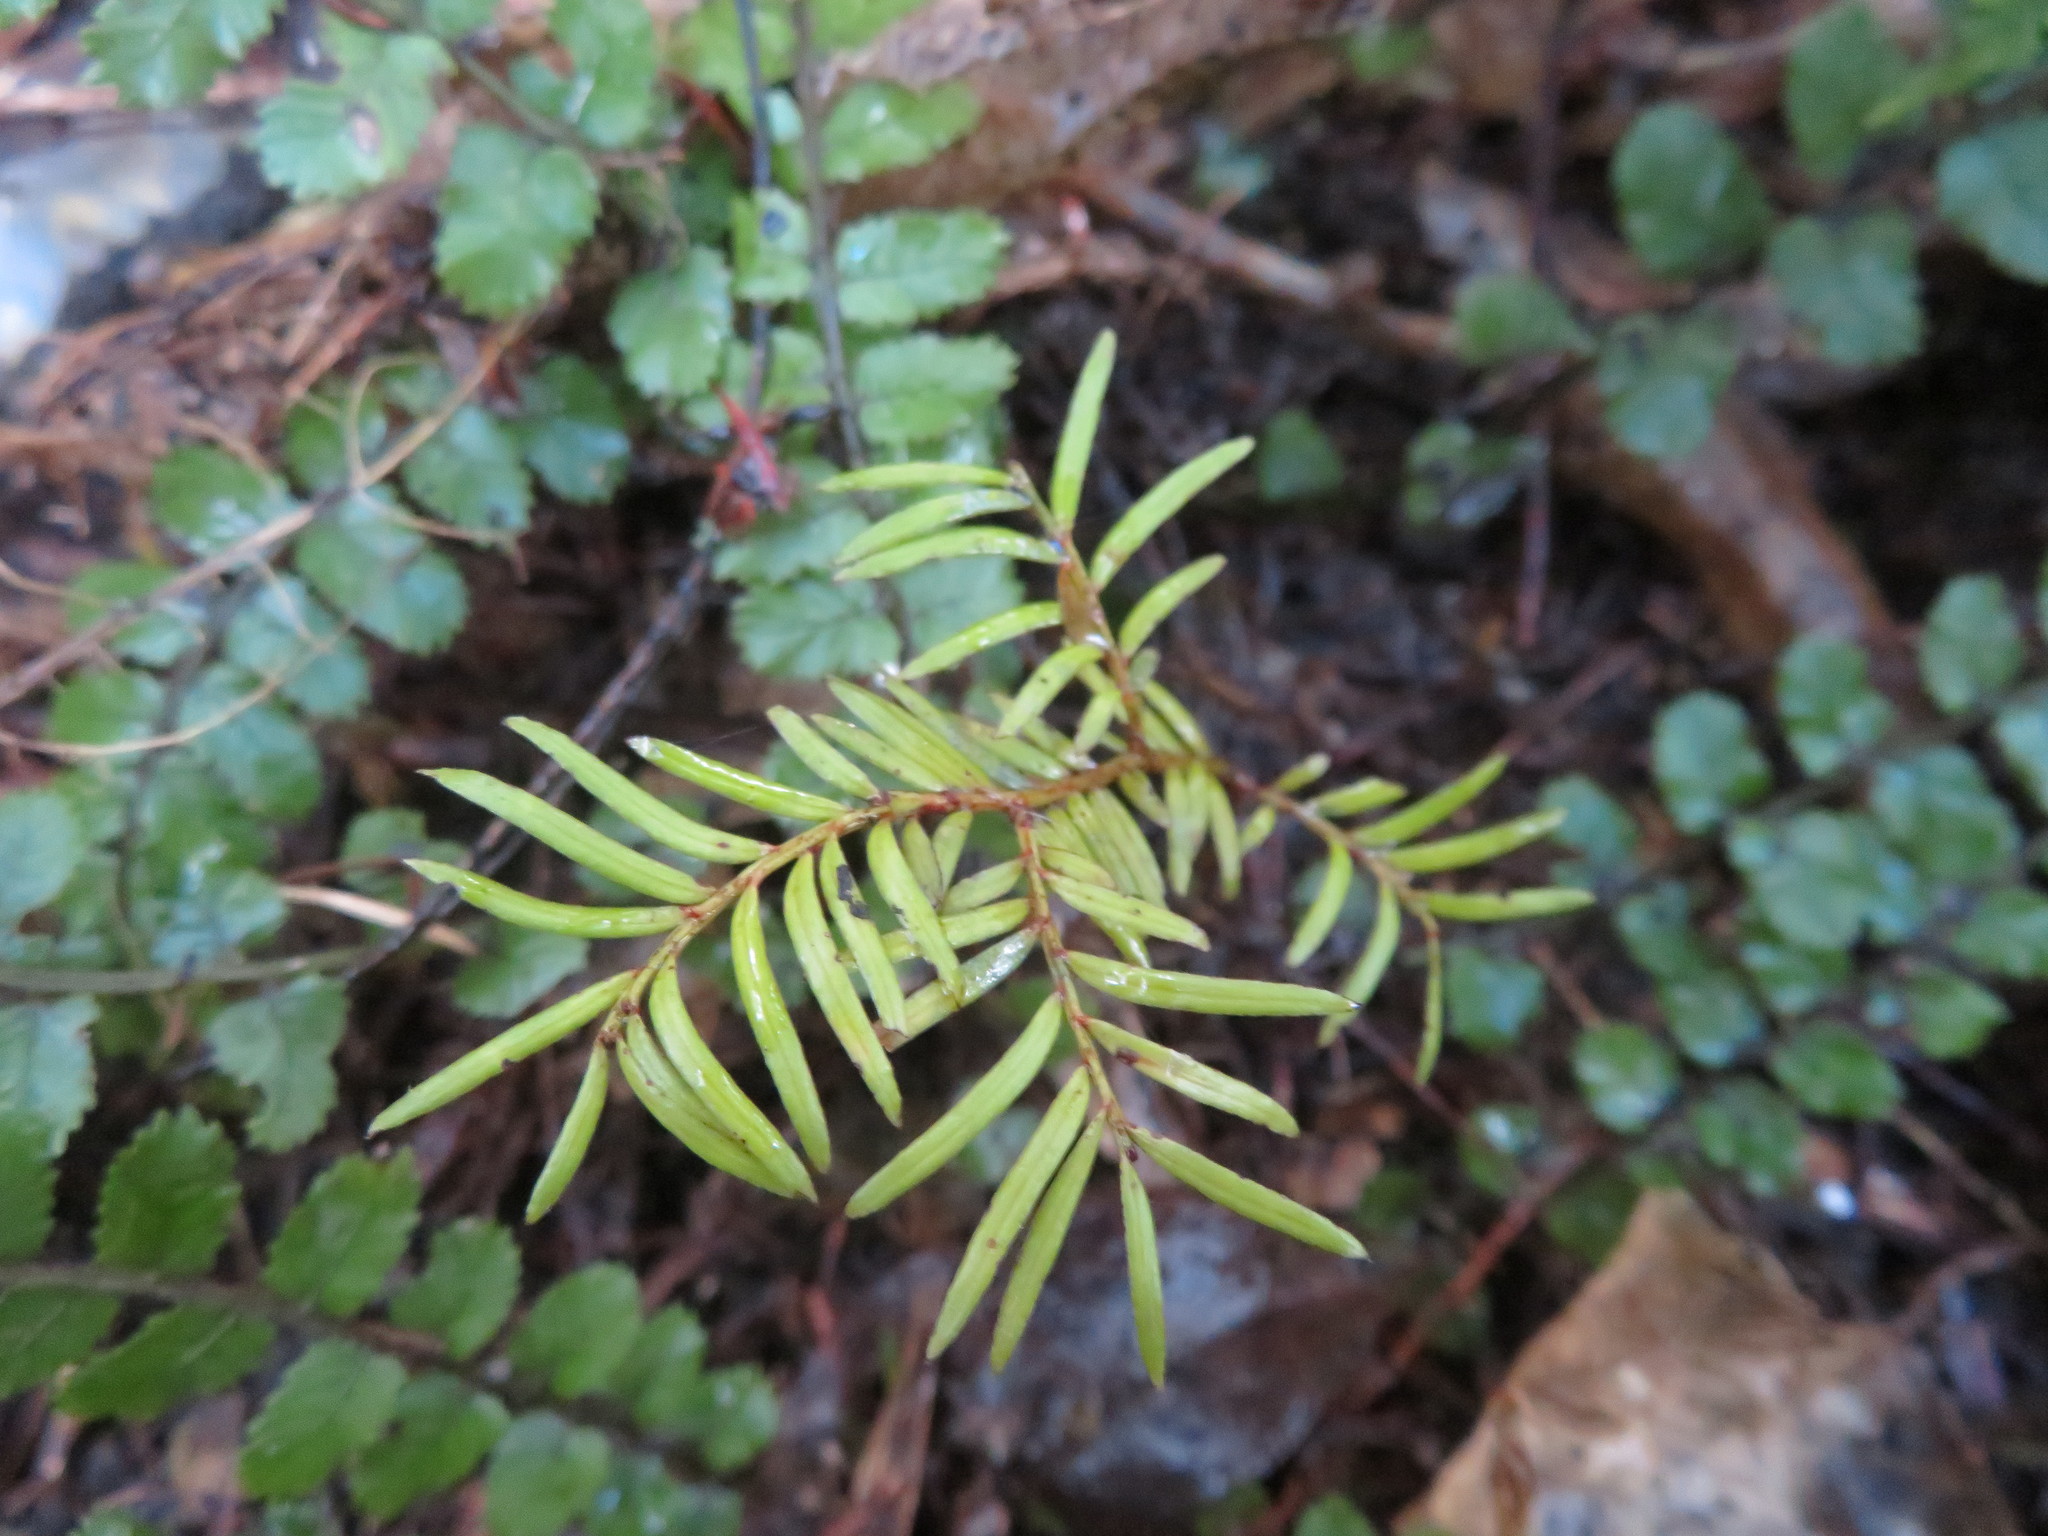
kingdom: Plantae
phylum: Tracheophyta
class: Pinopsida
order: Pinales
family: Podocarpaceae
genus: Prumnopitys
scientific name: Prumnopitys ferruginea
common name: Brown pine
